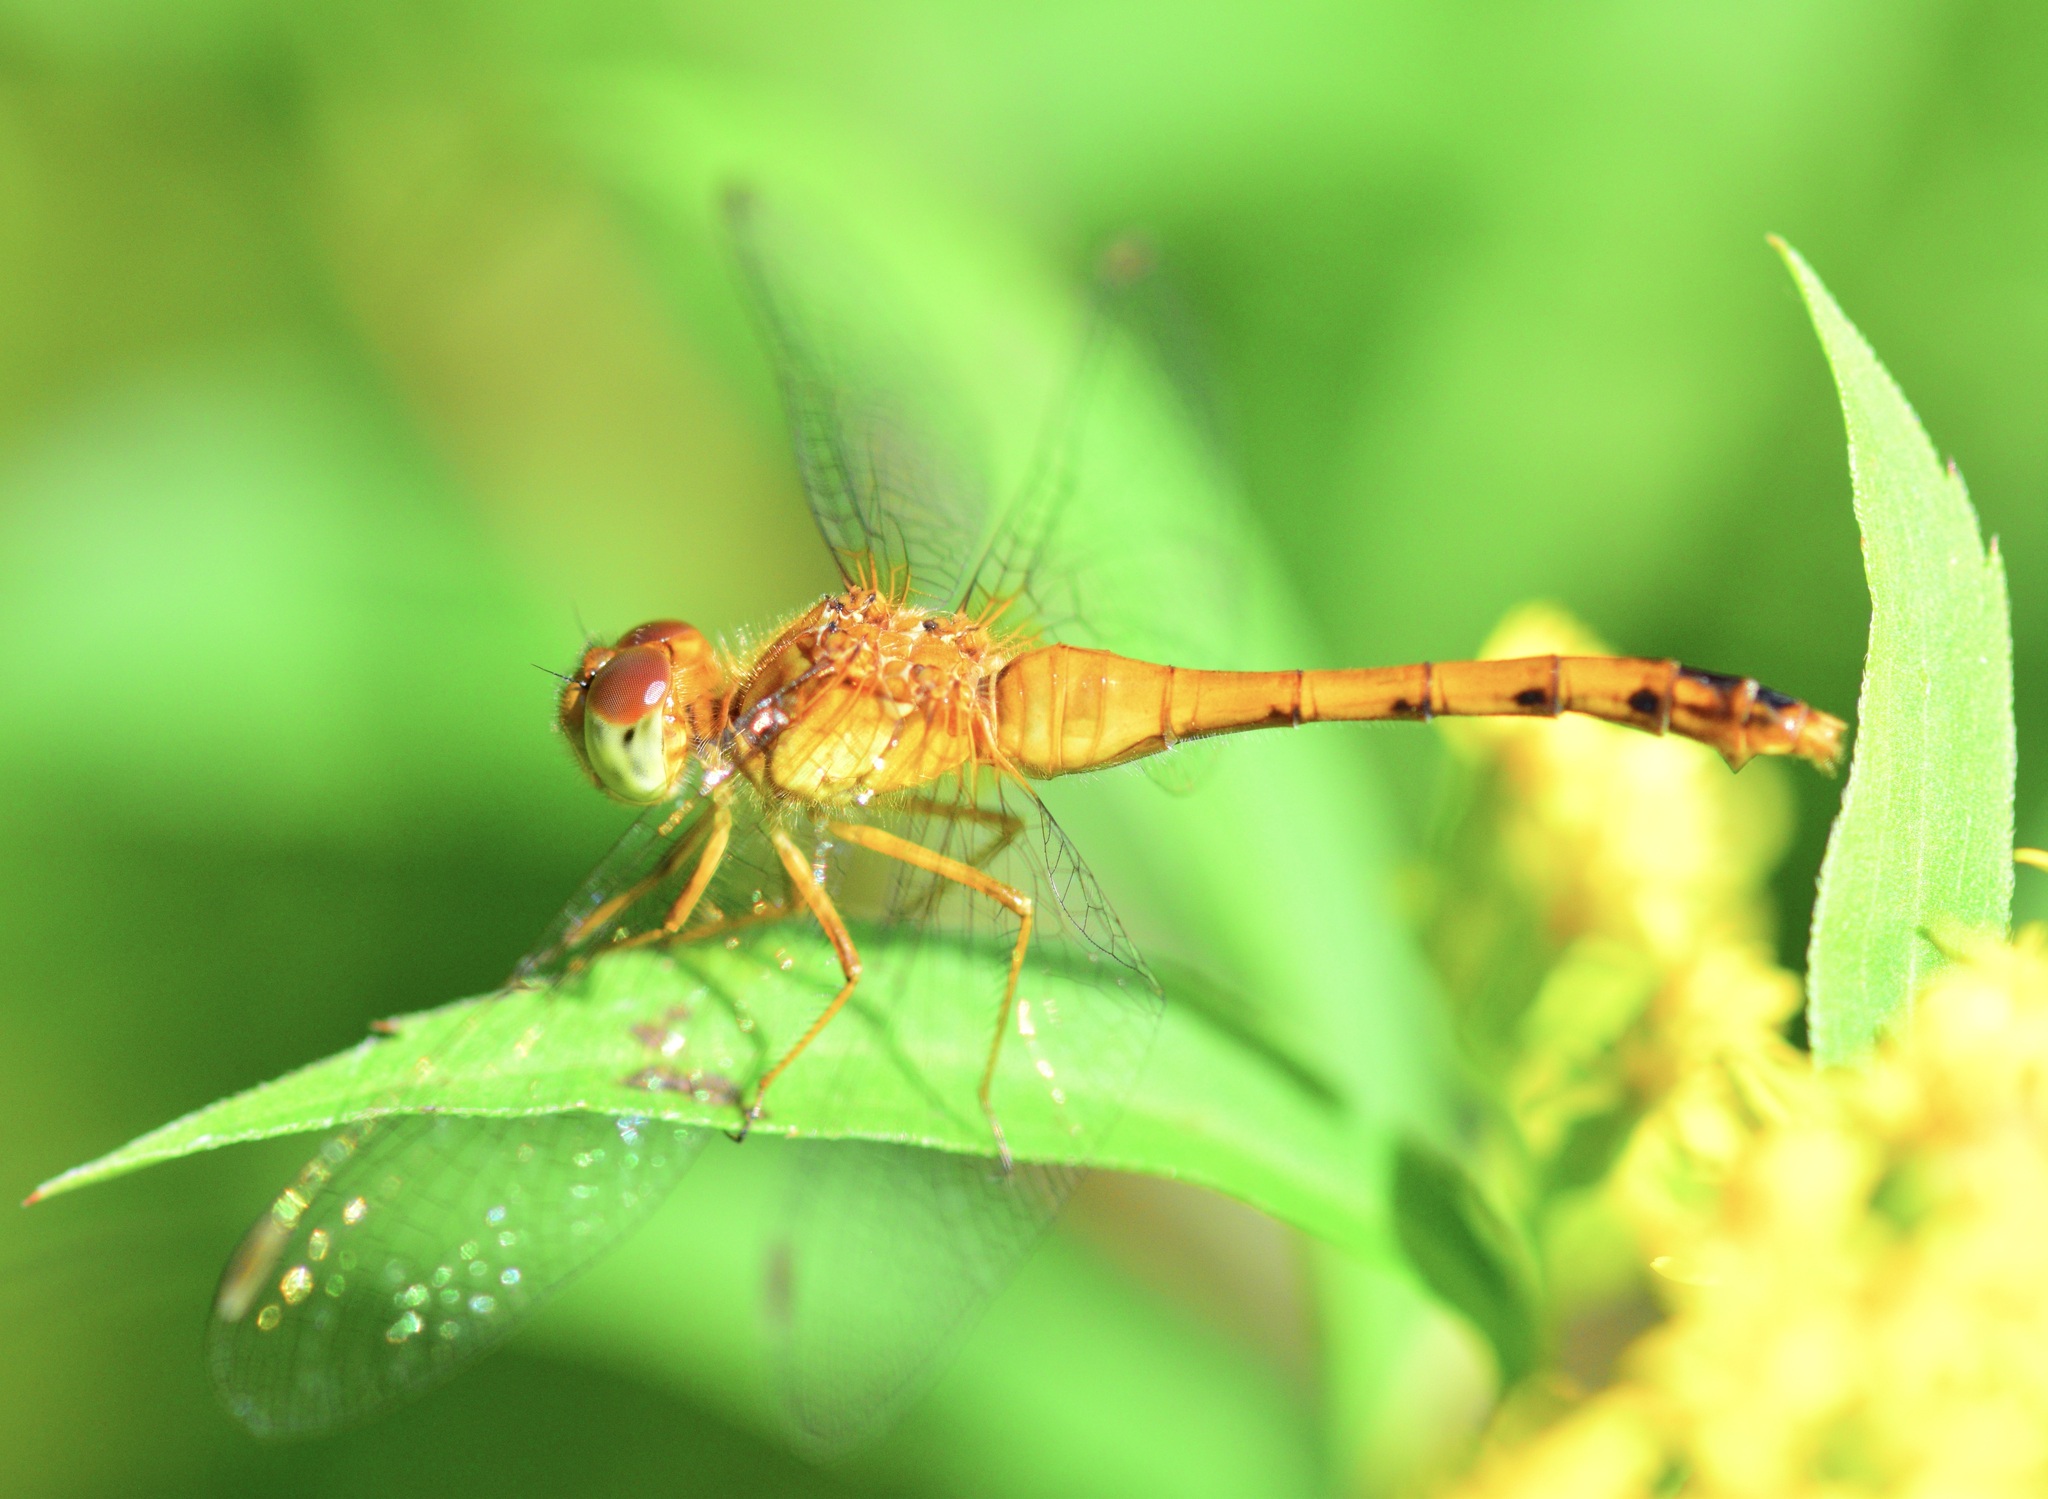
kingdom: Animalia
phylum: Arthropoda
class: Insecta
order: Odonata
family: Libellulidae
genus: Sympetrum
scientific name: Sympetrum vicinum
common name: Autumn meadowhawk
